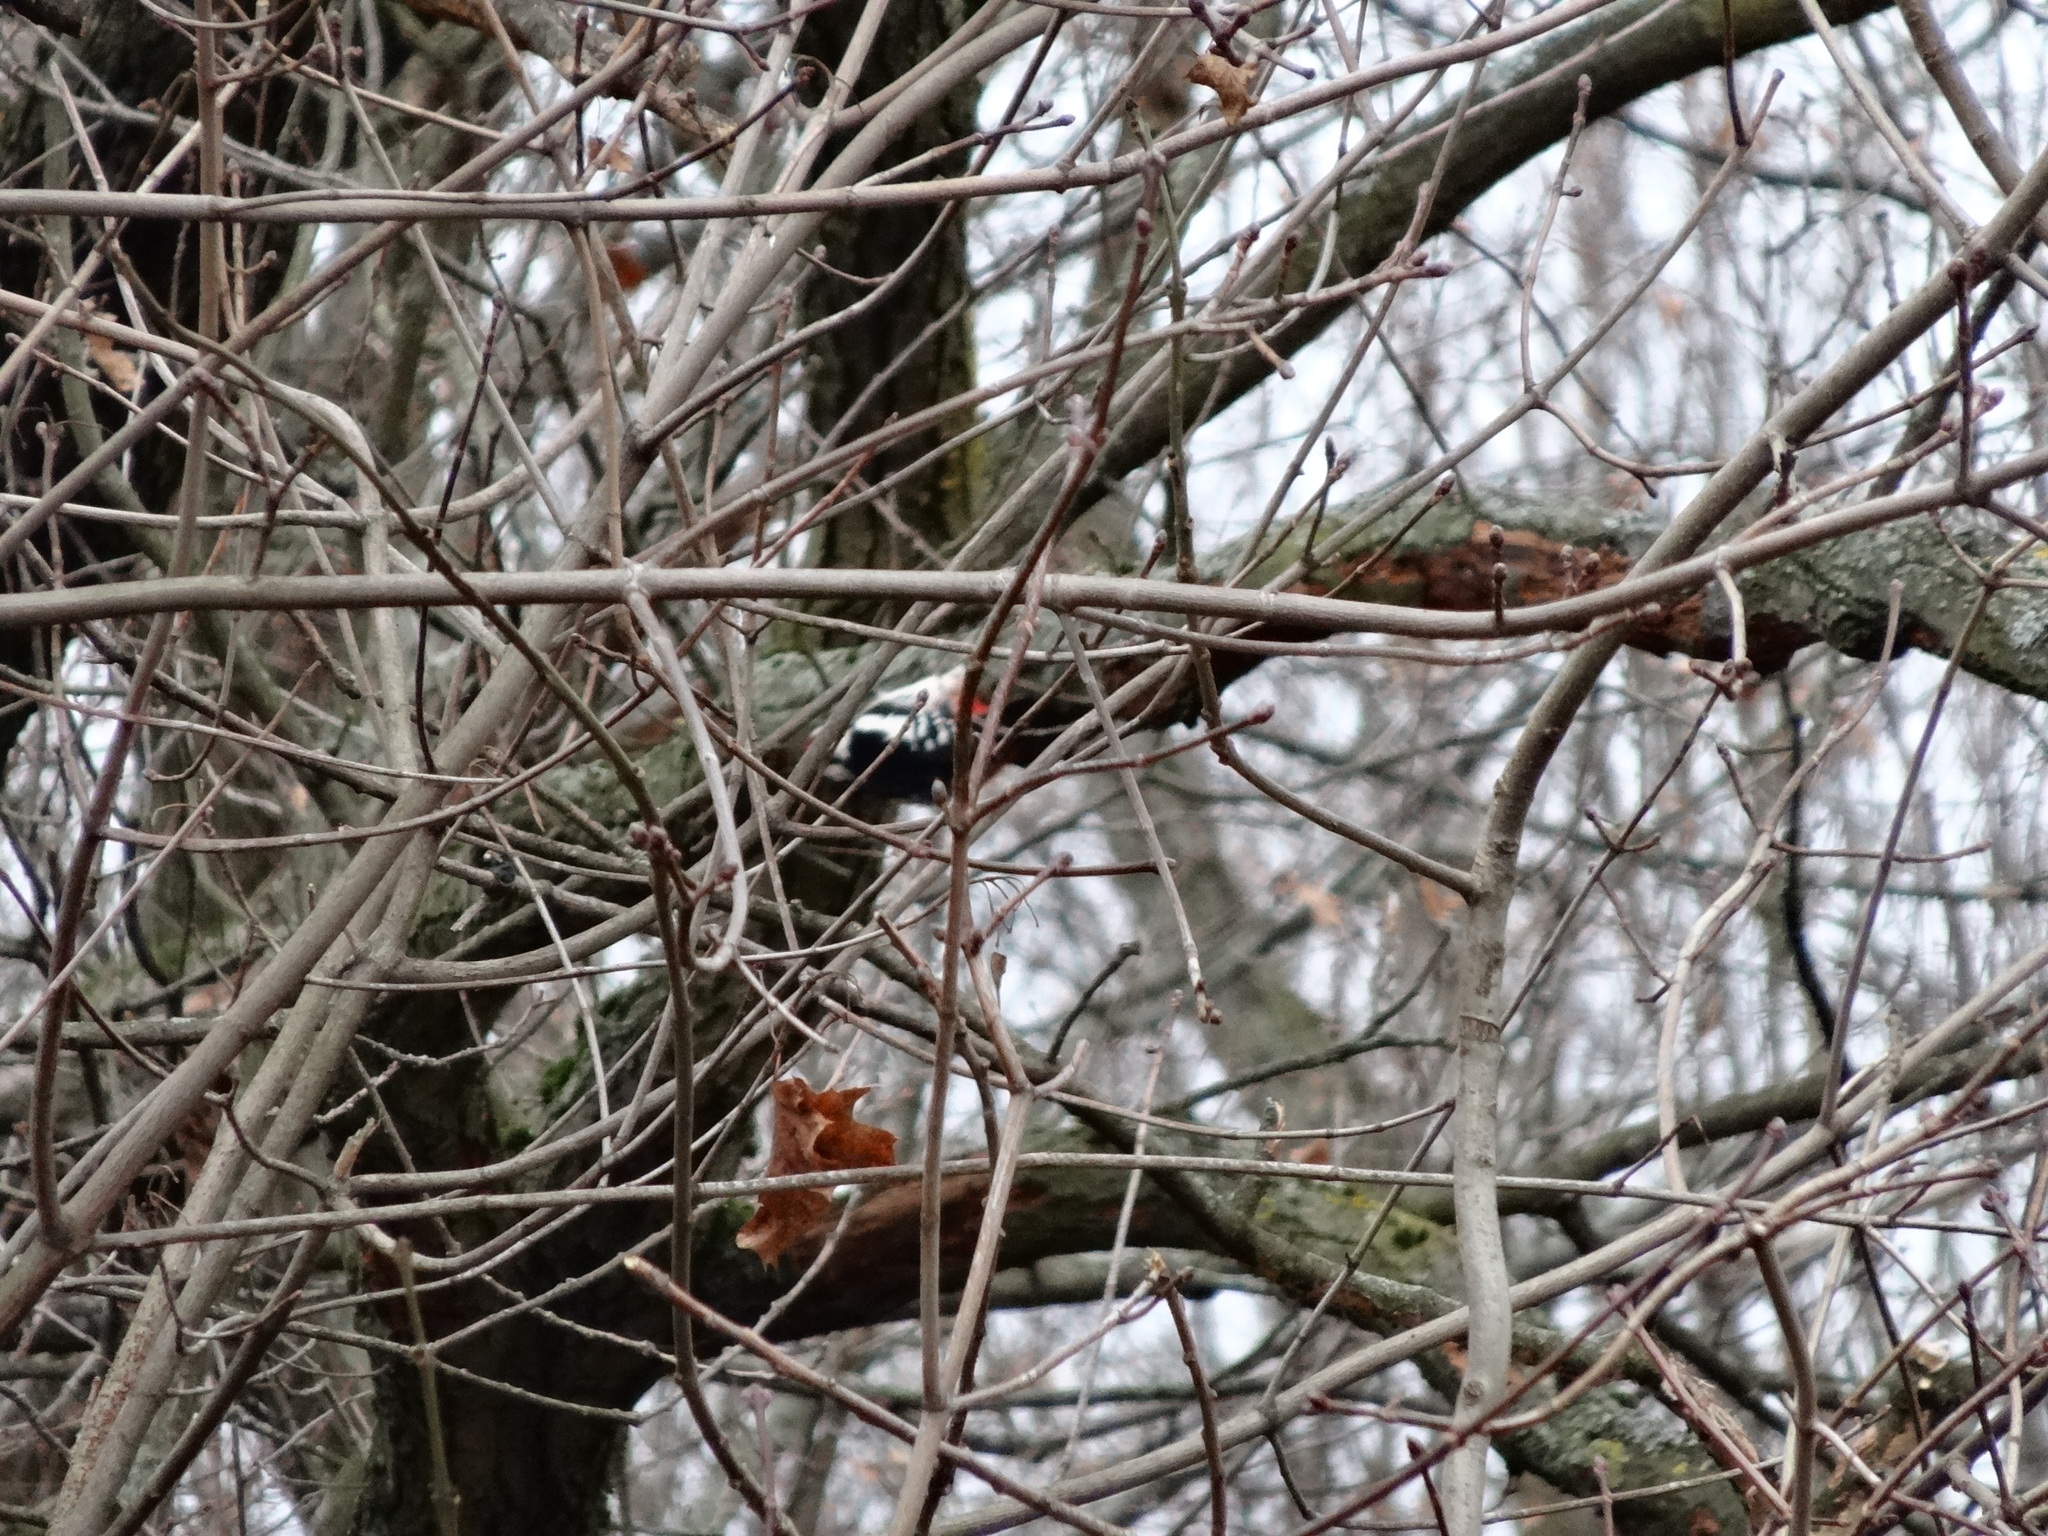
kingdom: Animalia
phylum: Chordata
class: Aves
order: Piciformes
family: Picidae
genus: Dendrocopos
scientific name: Dendrocopos major
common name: Great spotted woodpecker
